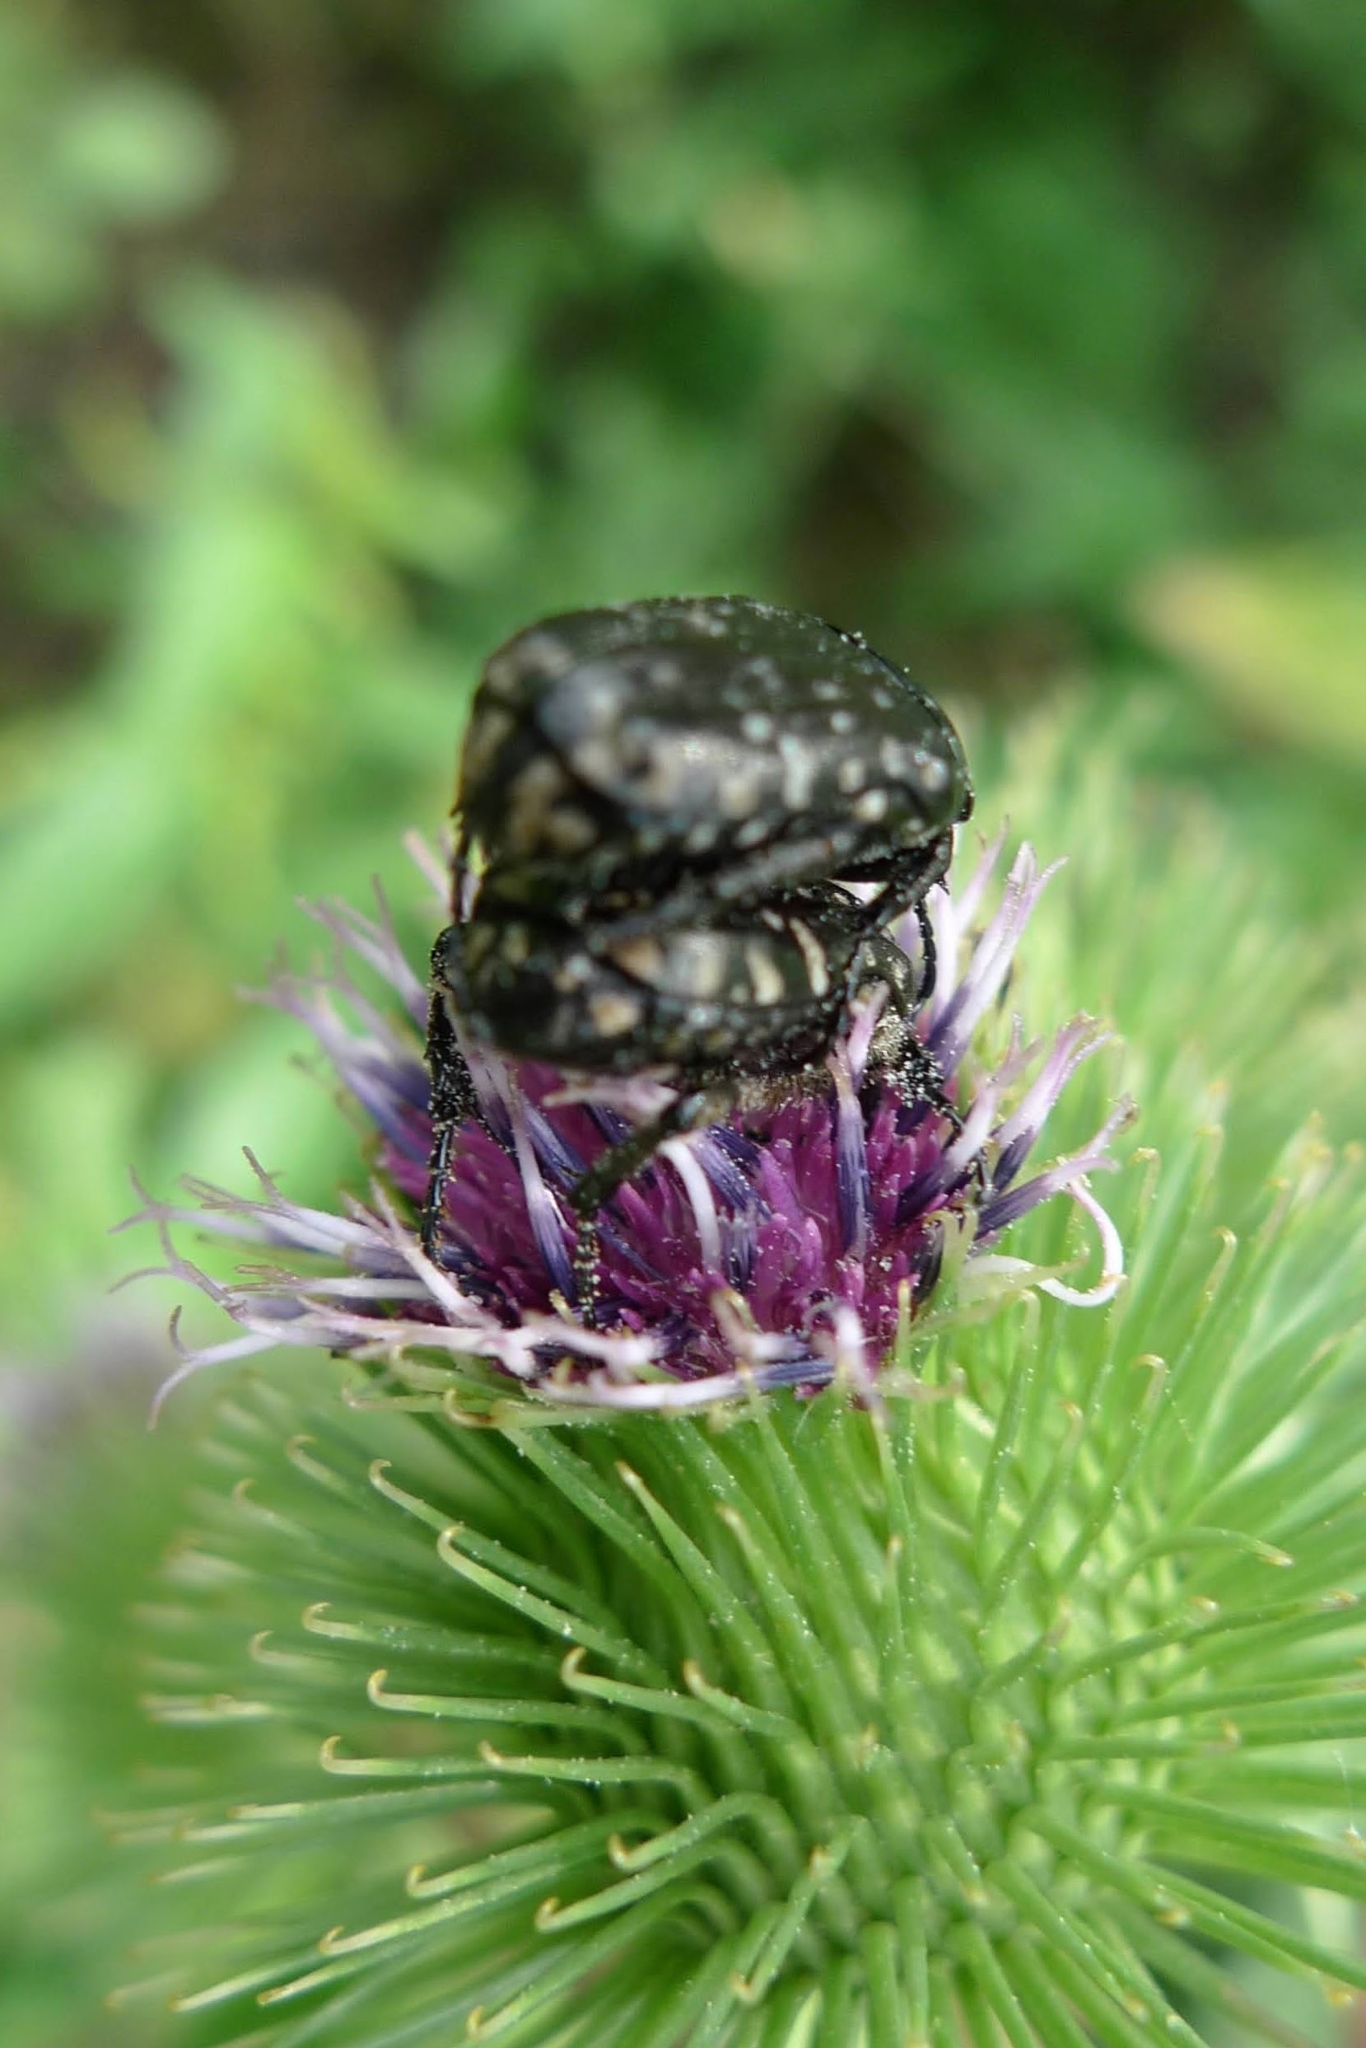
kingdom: Animalia
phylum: Arthropoda
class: Insecta
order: Coleoptera
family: Scarabaeidae
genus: Oxythyrea
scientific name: Oxythyrea funesta
